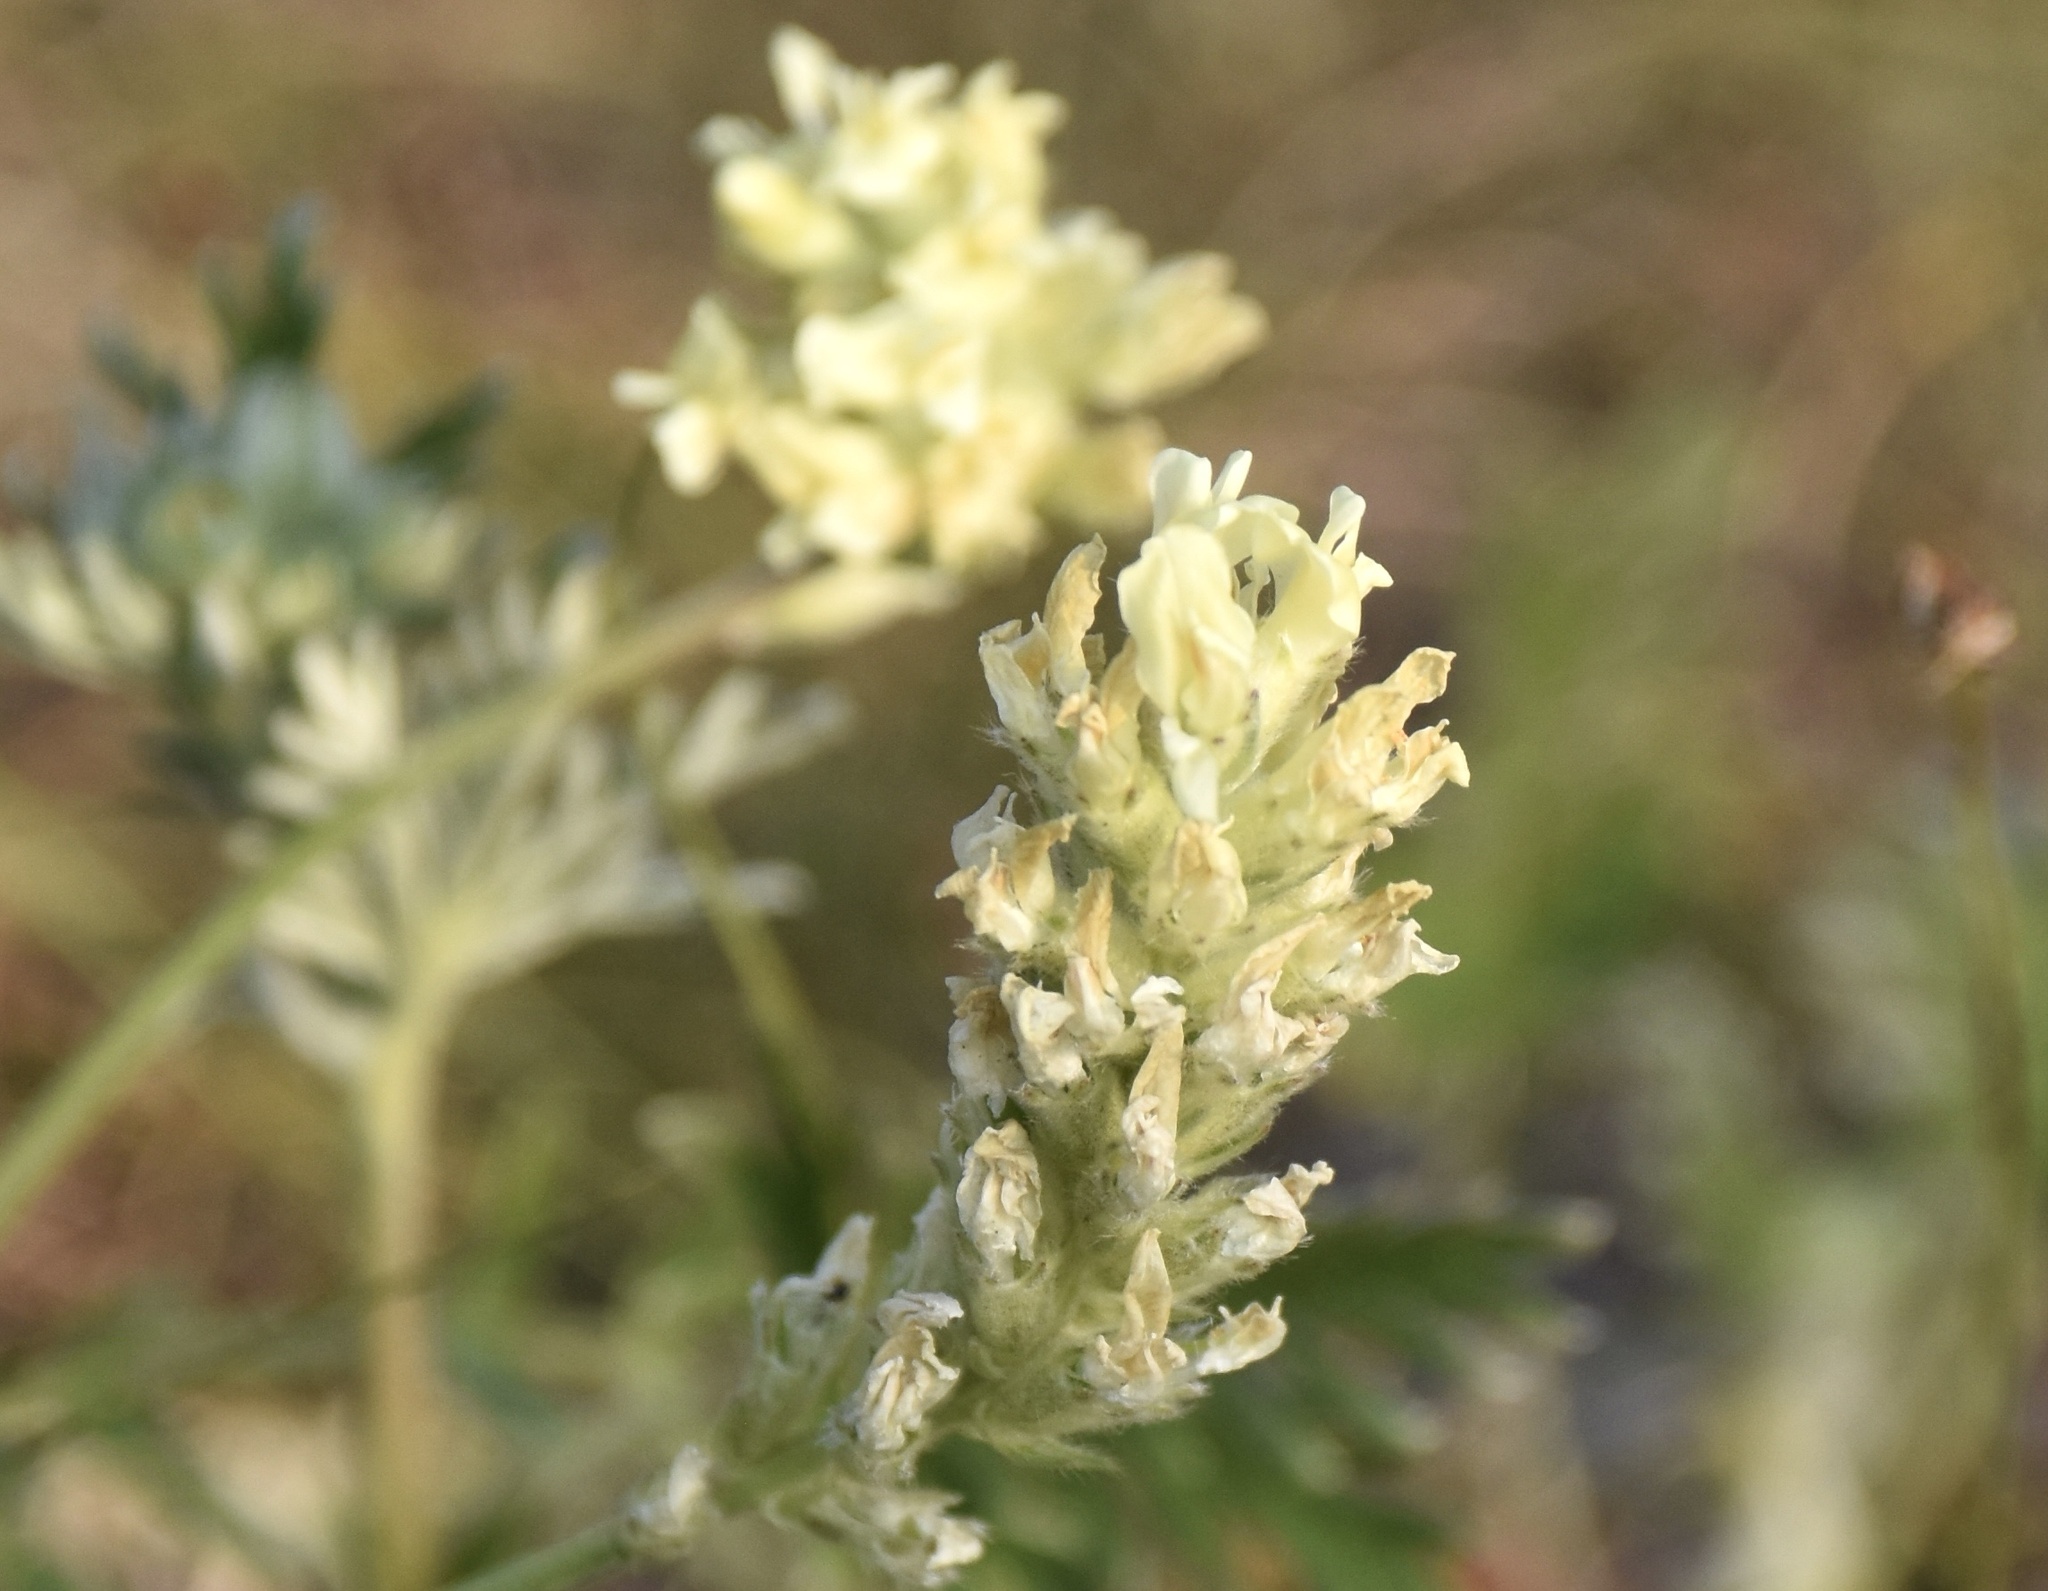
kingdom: Plantae
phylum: Tracheophyta
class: Magnoliopsida
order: Fabales
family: Fabaceae
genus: Oxytropis
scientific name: Oxytropis campestris
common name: Field locoweed
